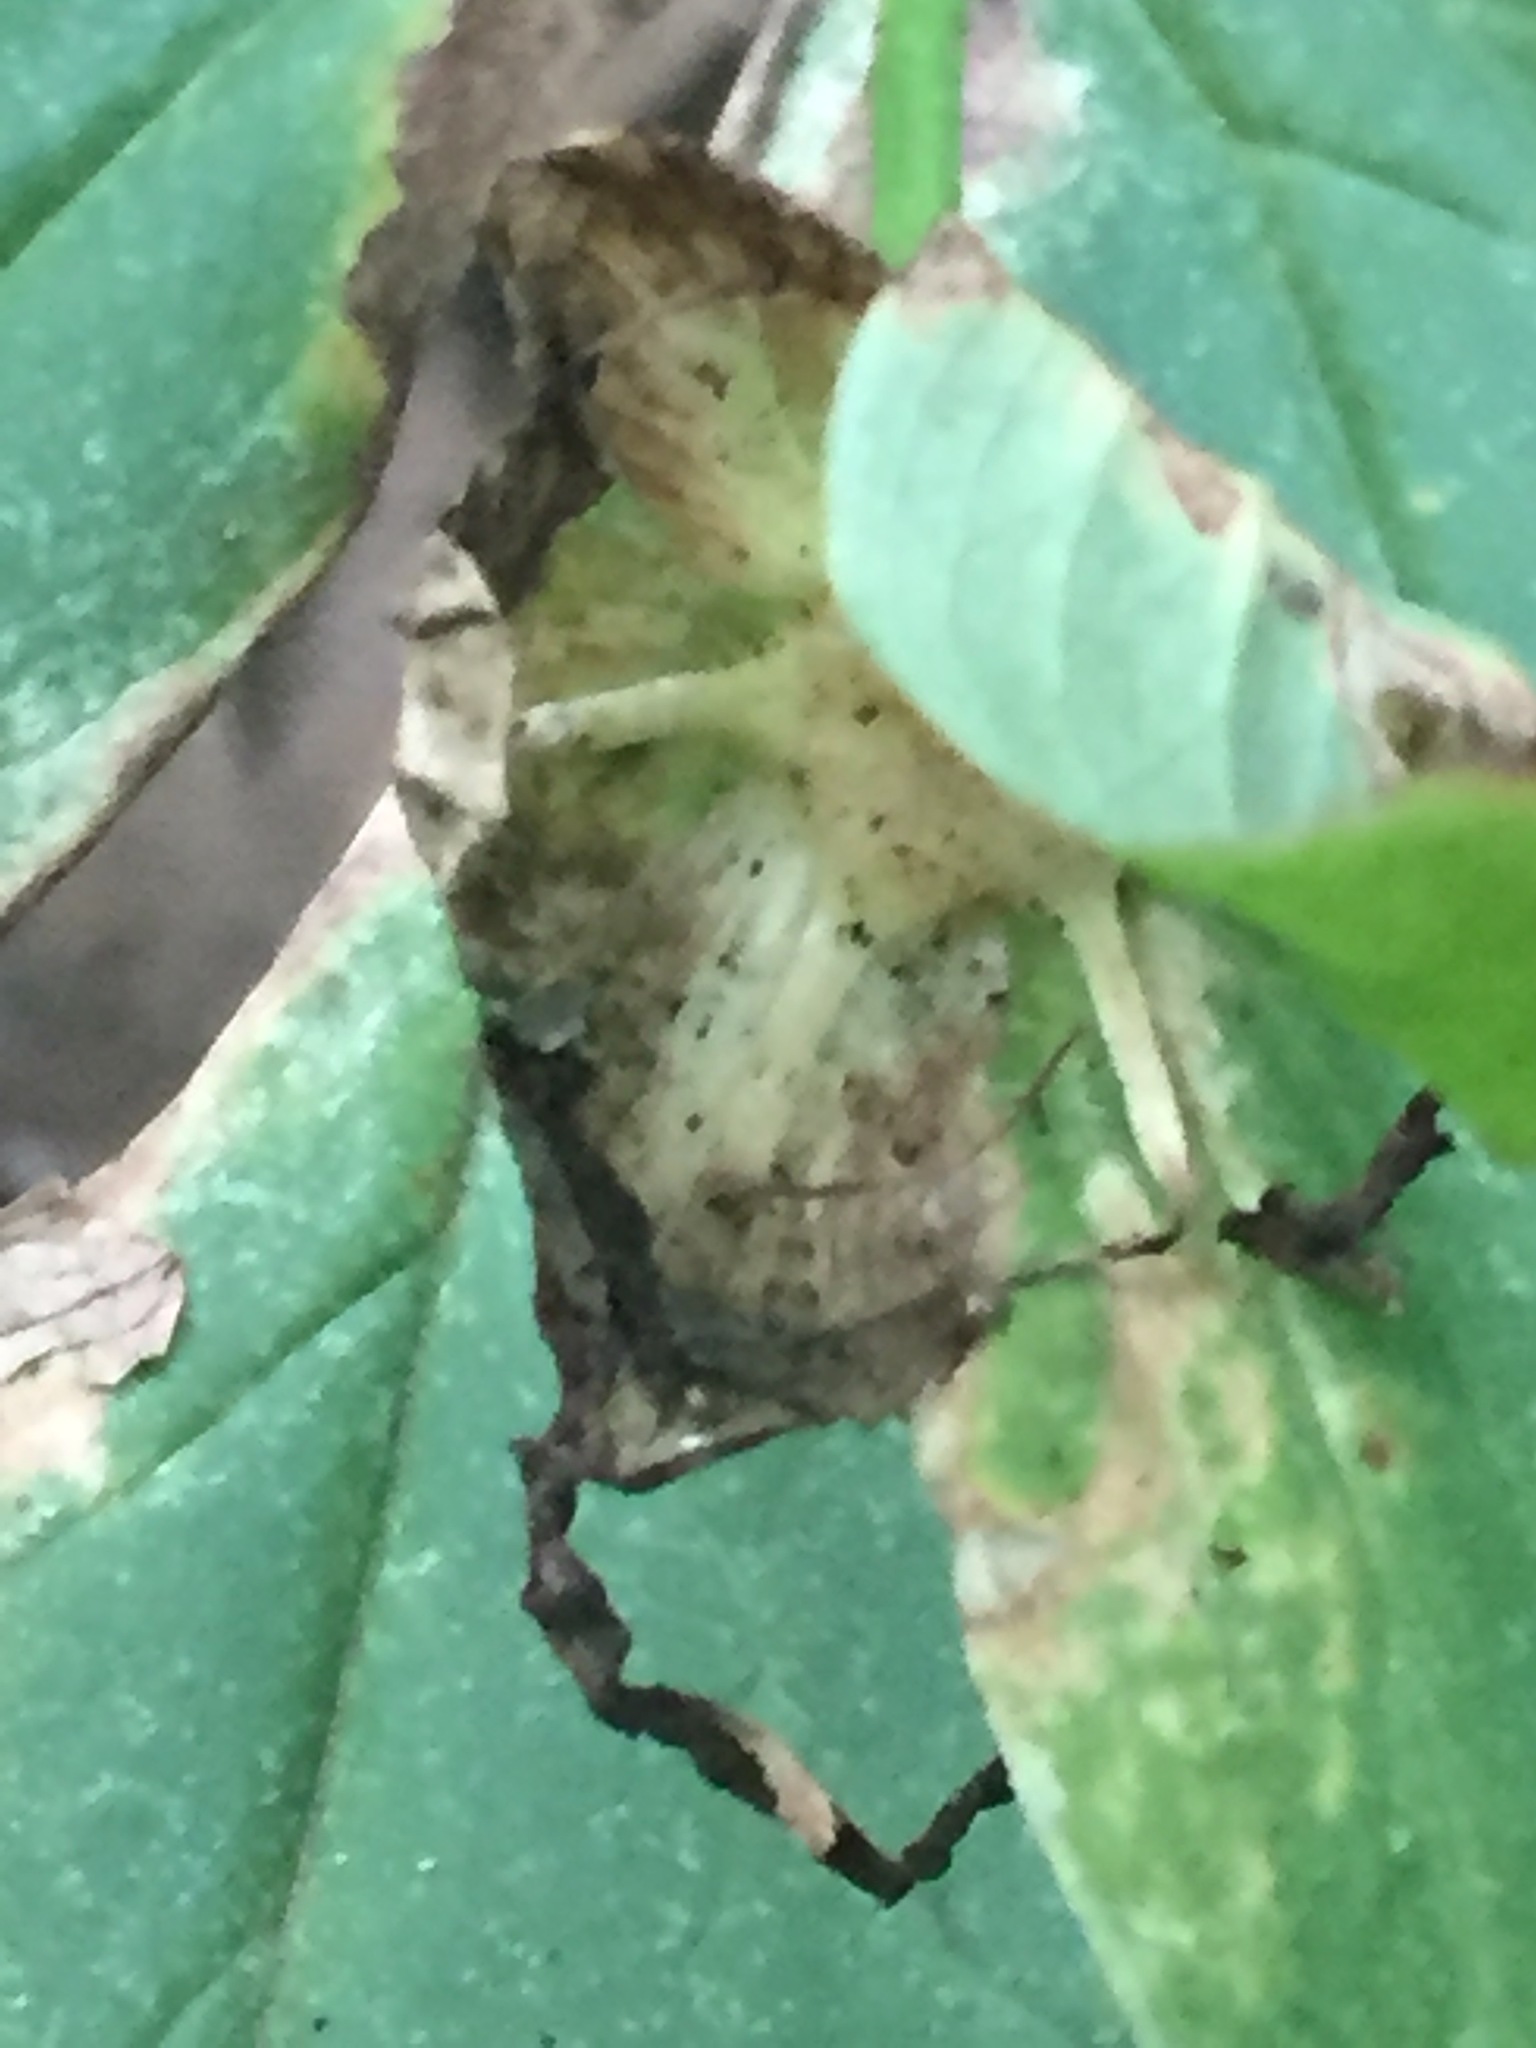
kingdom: Plantae
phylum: Tracheophyta
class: Liliopsida
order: Liliales
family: Melanthiaceae
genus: Trillium
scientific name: Trillium grandiflorum
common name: Great white trillium
